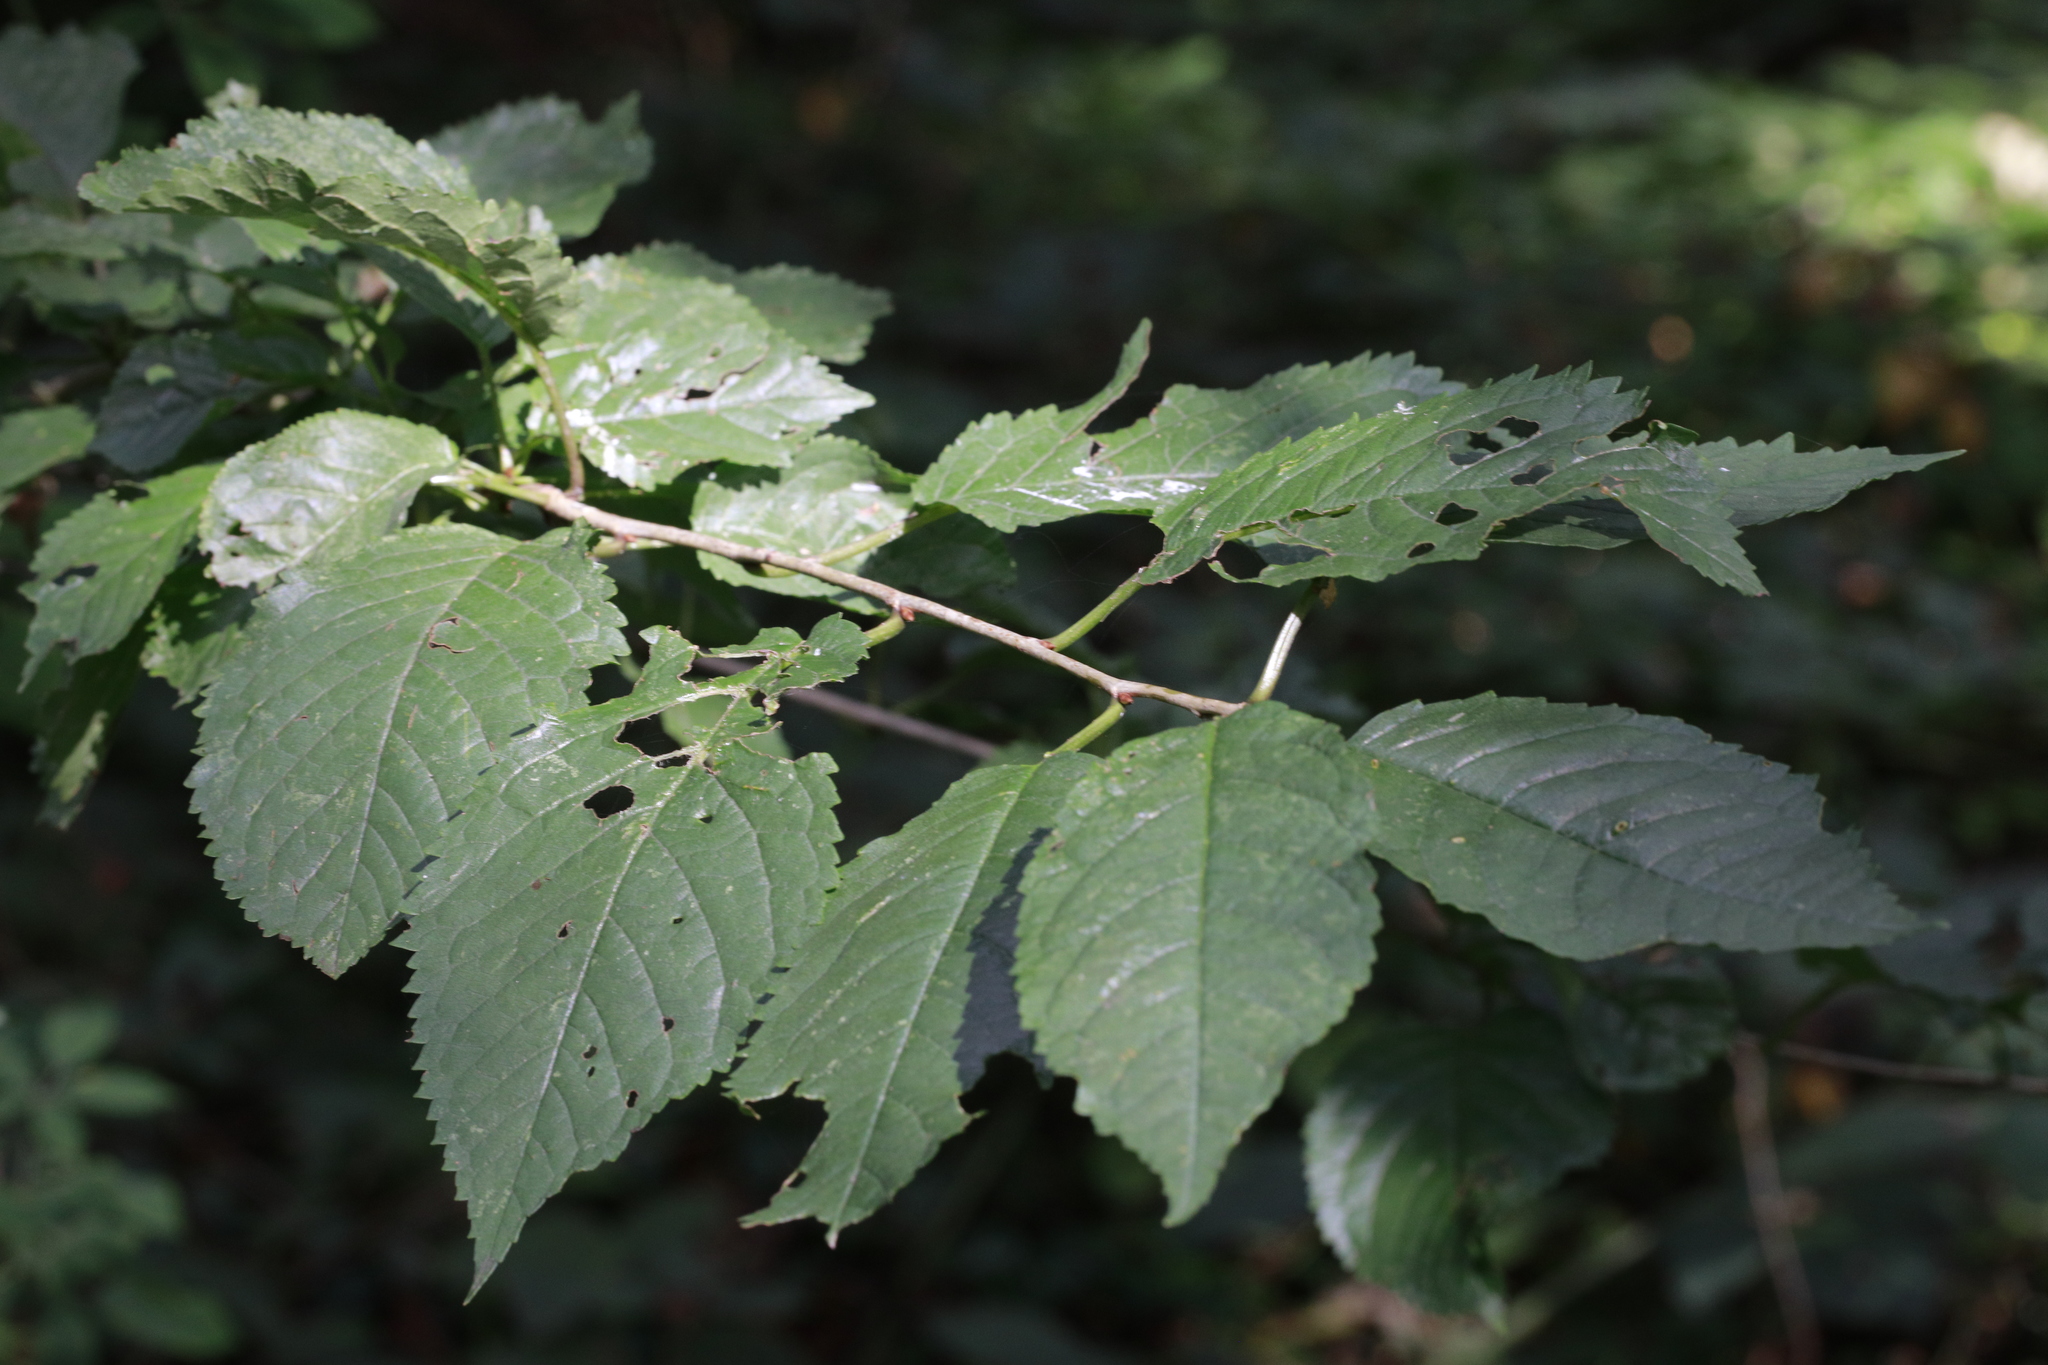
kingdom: Plantae
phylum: Tracheophyta
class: Magnoliopsida
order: Rosales
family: Rosaceae
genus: Prunus
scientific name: Prunus avium
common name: Sweet cherry
